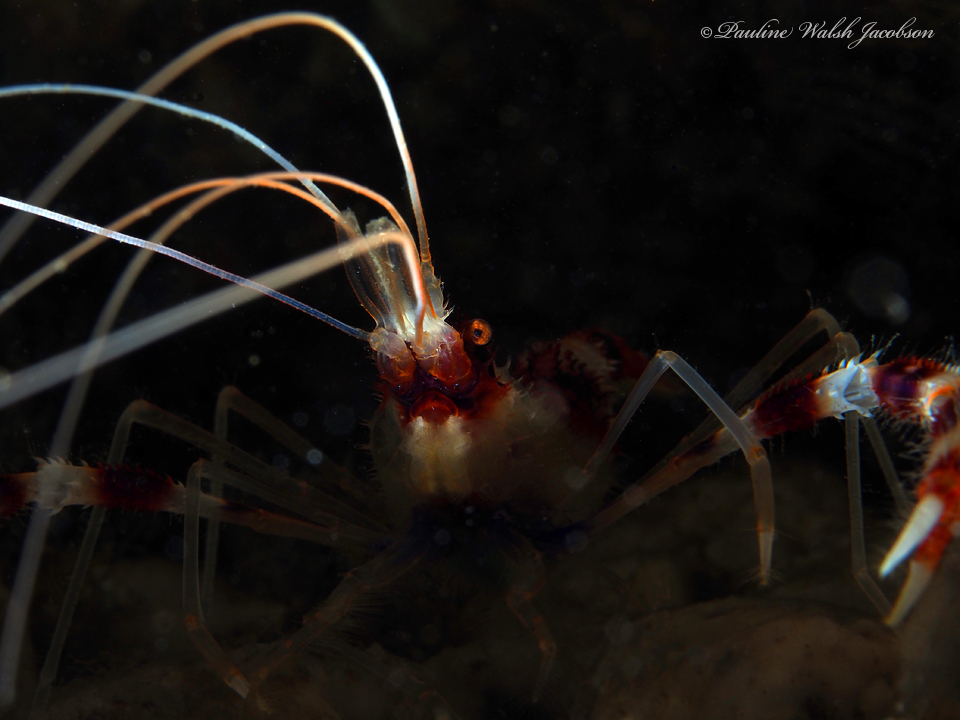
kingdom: Animalia
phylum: Arthropoda
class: Malacostraca
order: Decapoda
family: Stenopodidae
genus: Stenopus
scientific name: Stenopus hispidus
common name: Banded coral shrimp
